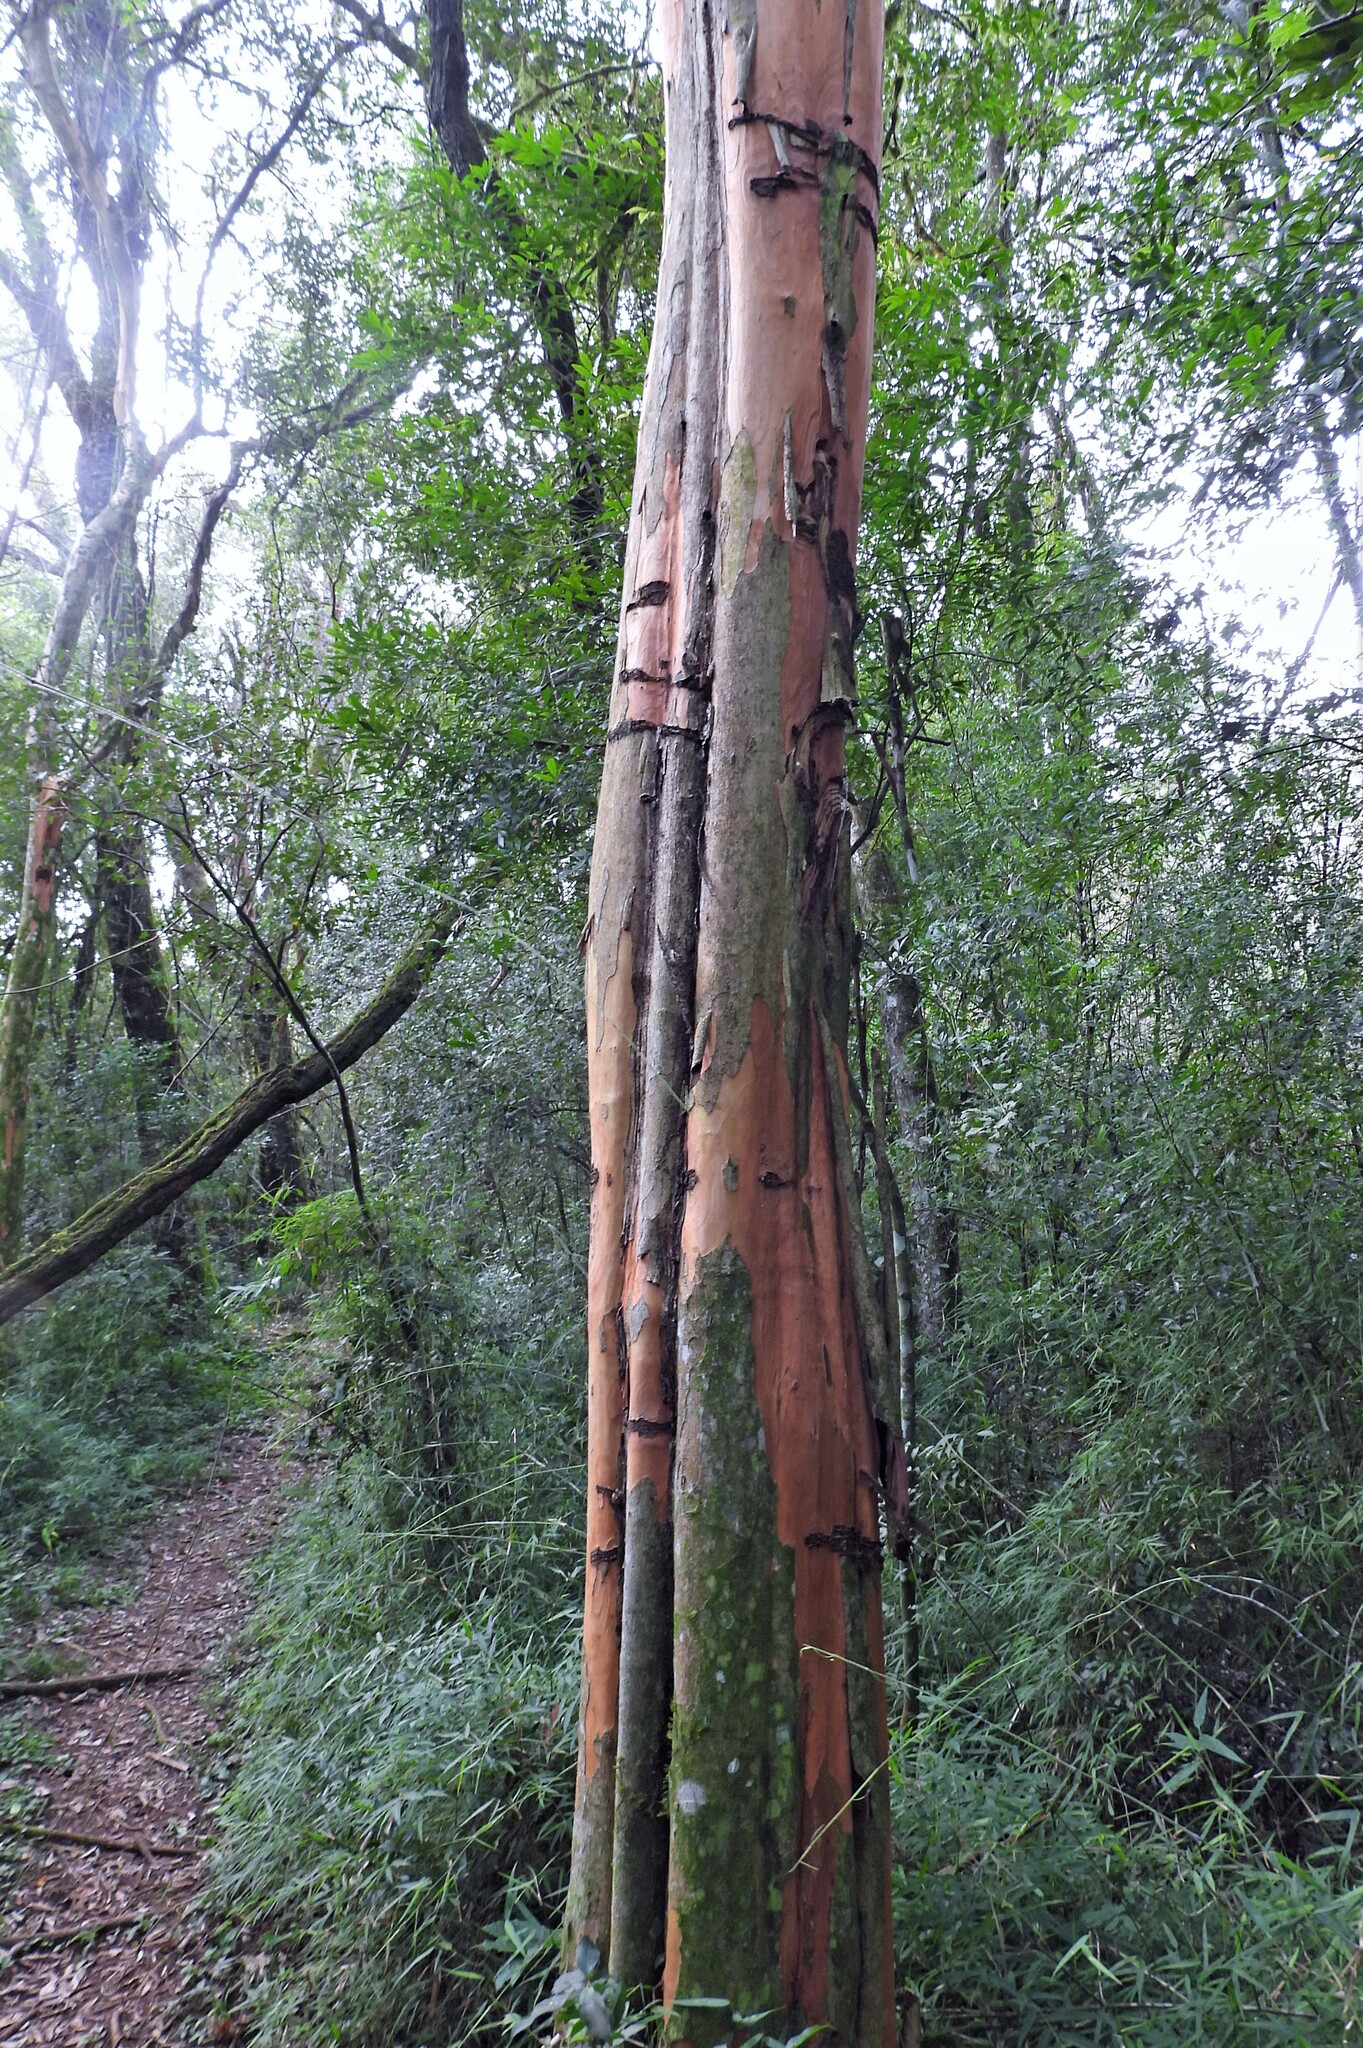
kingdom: Plantae
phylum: Tracheophyta
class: Magnoliopsida
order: Myrtales
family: Myrtaceae
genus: Eugenia
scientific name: Eugenia pyriformis
